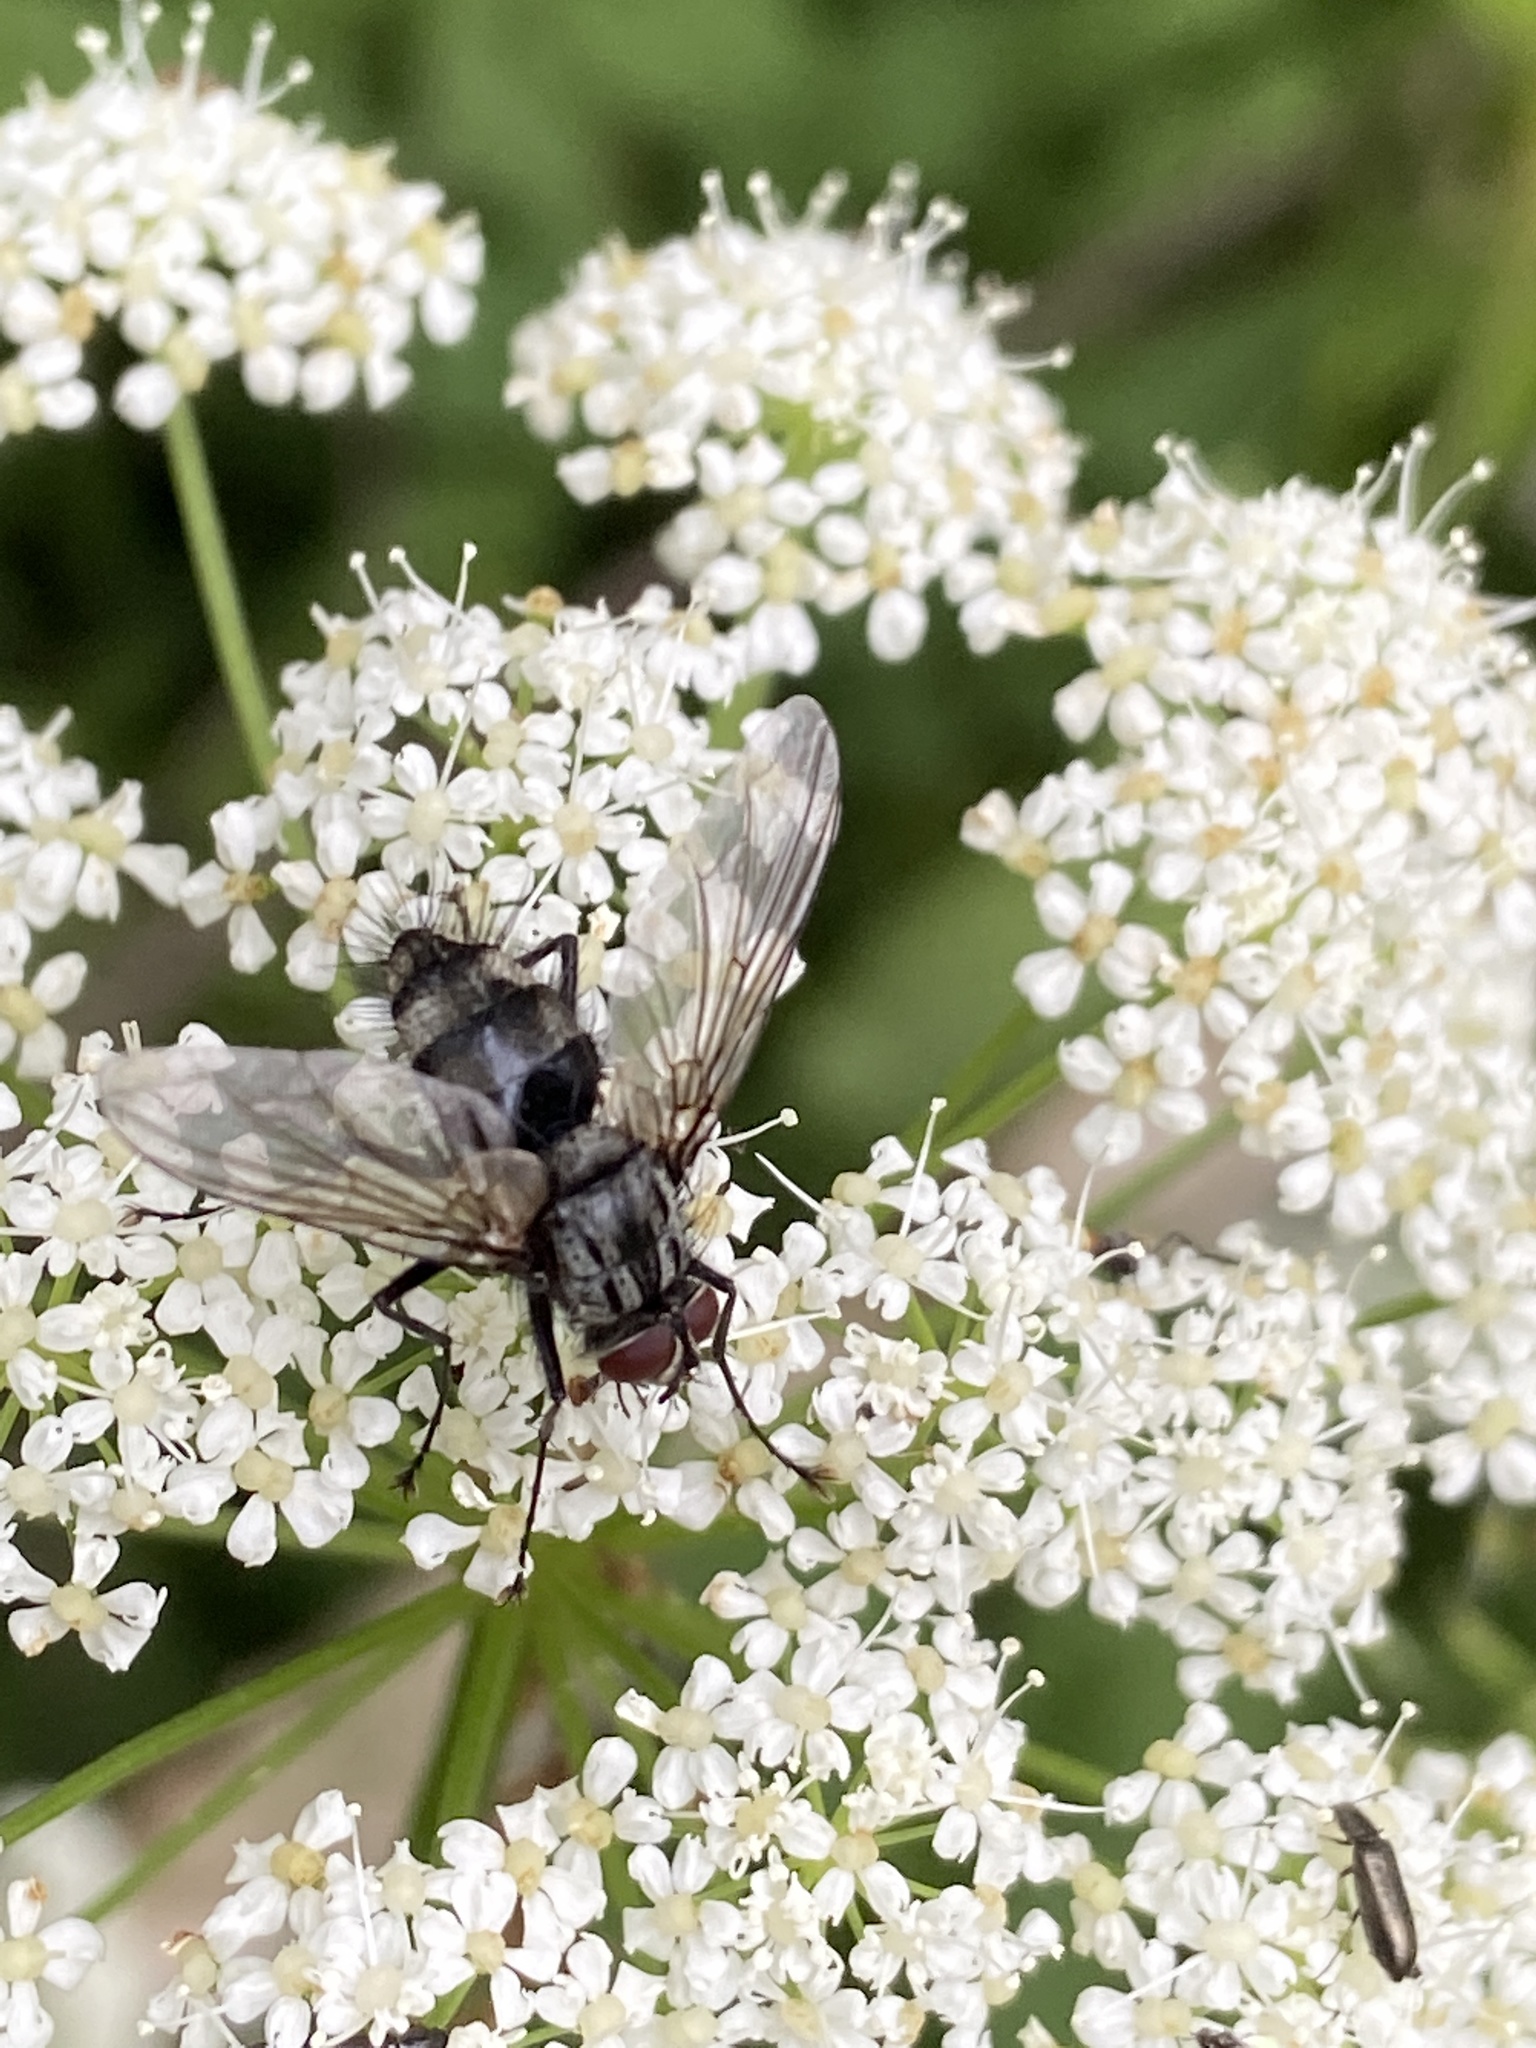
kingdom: Animalia
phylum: Arthropoda
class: Insecta
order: Diptera
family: Tachinidae
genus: Dinera
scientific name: Dinera ferina
